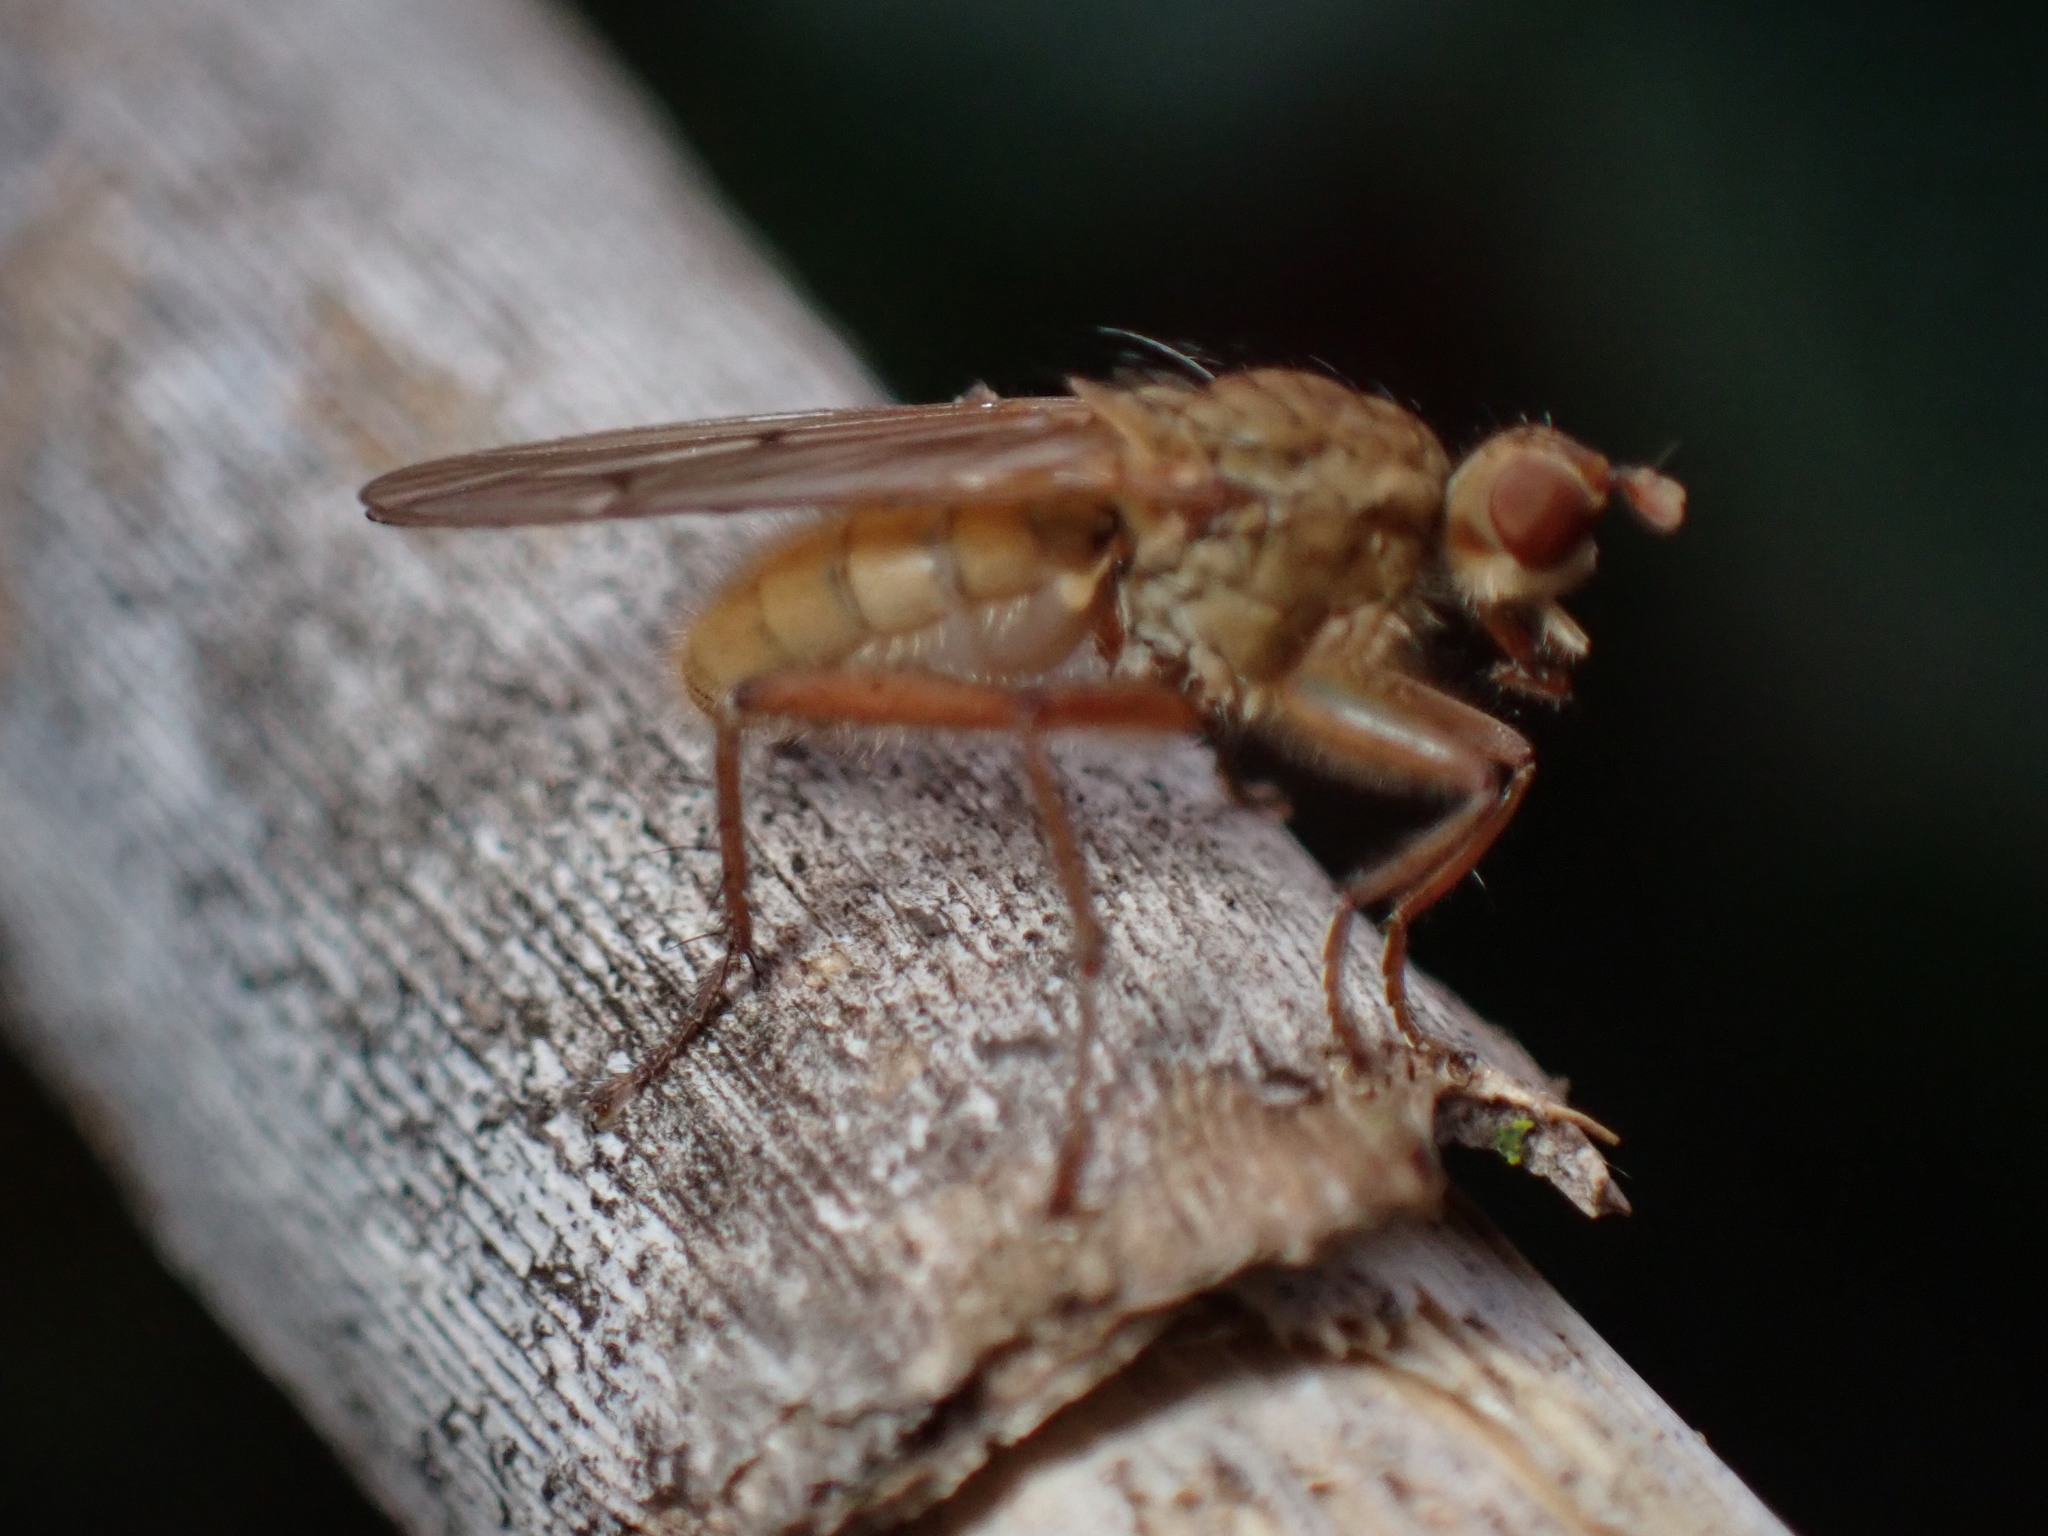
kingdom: Animalia
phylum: Arthropoda
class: Insecta
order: Diptera
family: Scathophagidae
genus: Scathophaga
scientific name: Scathophaga furcata
